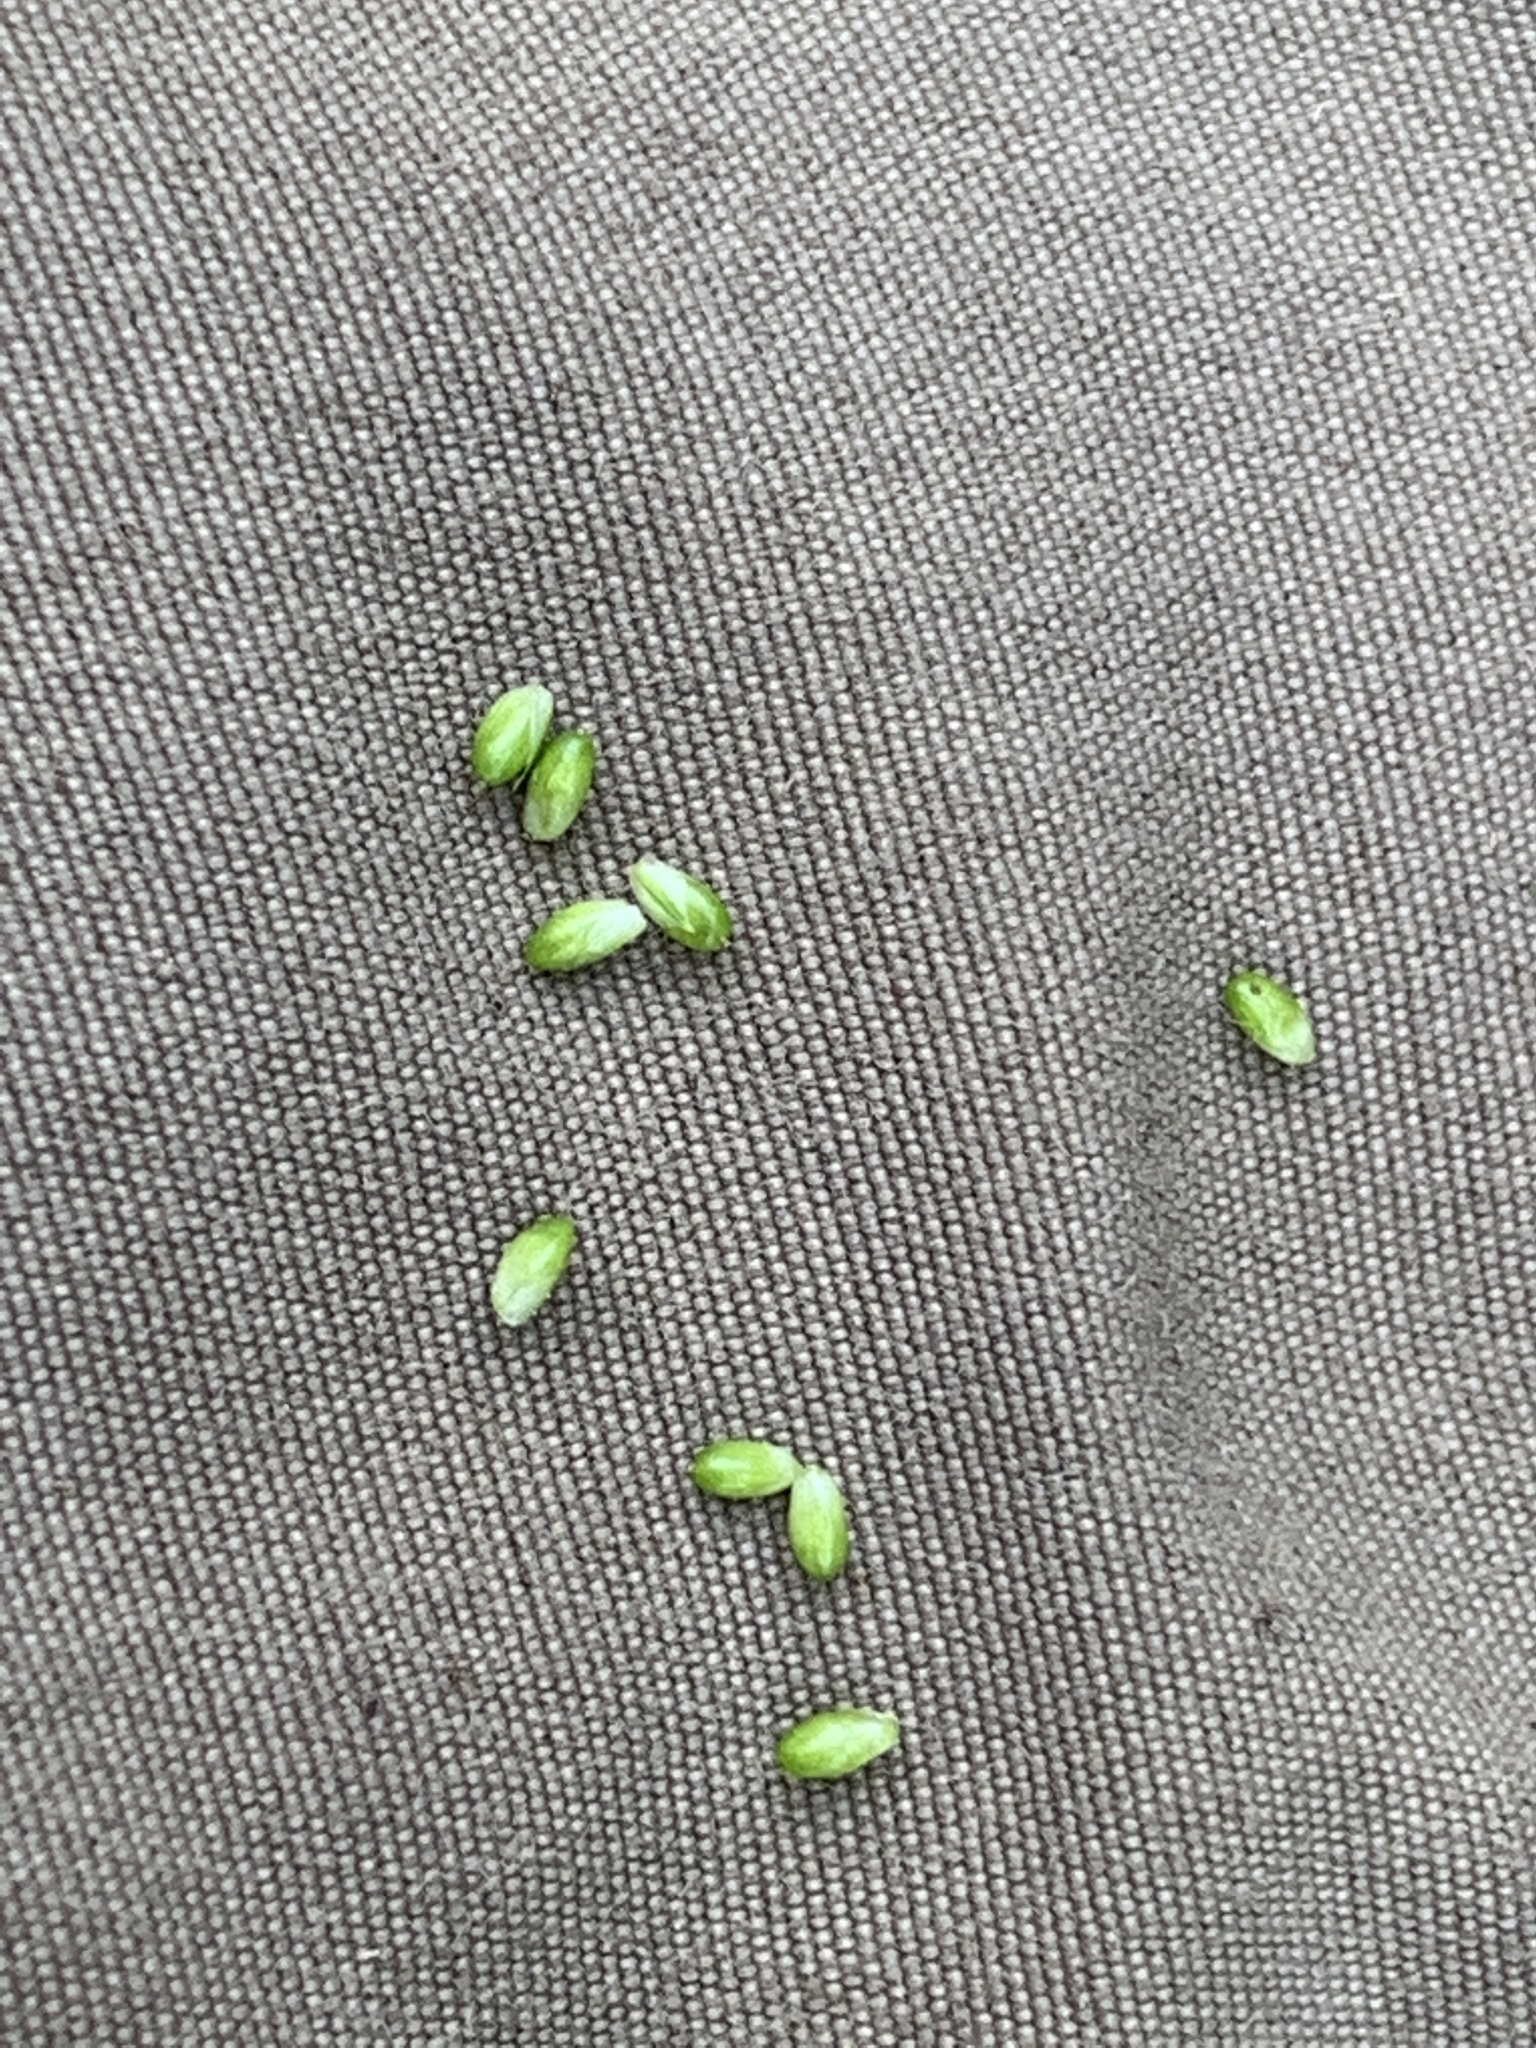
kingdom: Plantae
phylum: Tracheophyta
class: Liliopsida
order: Poales
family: Cyperaceae
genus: Carex
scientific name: Carex pallescens
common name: Pale sedge
